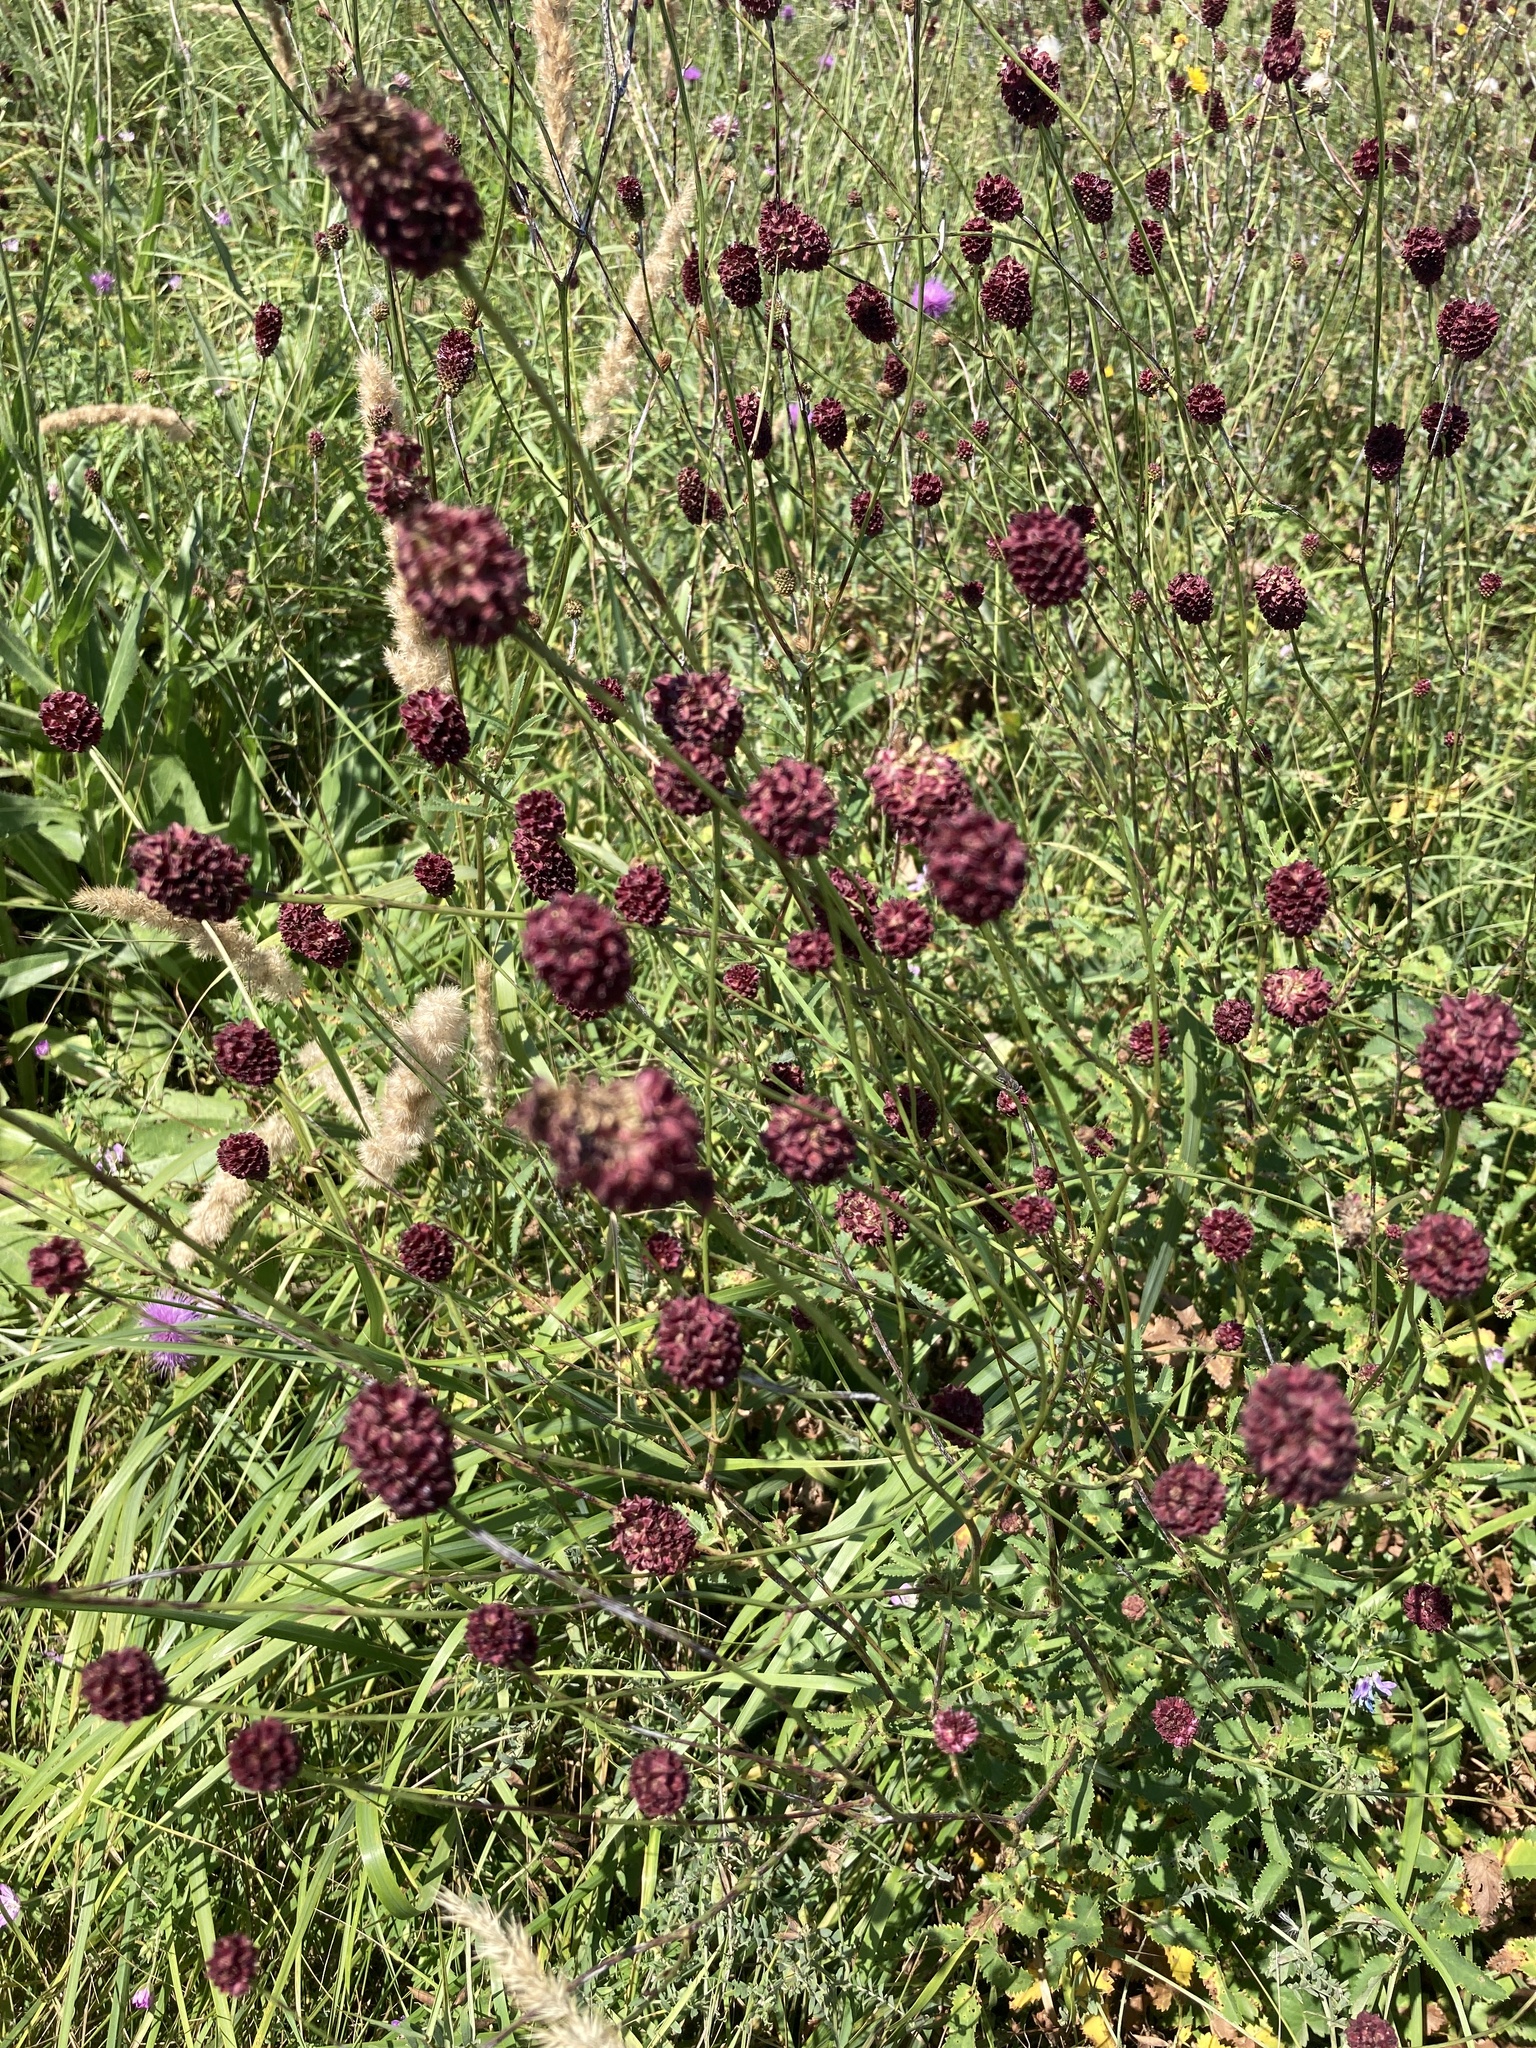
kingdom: Plantae
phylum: Tracheophyta
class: Magnoliopsida
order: Rosales
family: Rosaceae
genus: Sanguisorba
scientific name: Sanguisorba officinalis
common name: Great burnet
